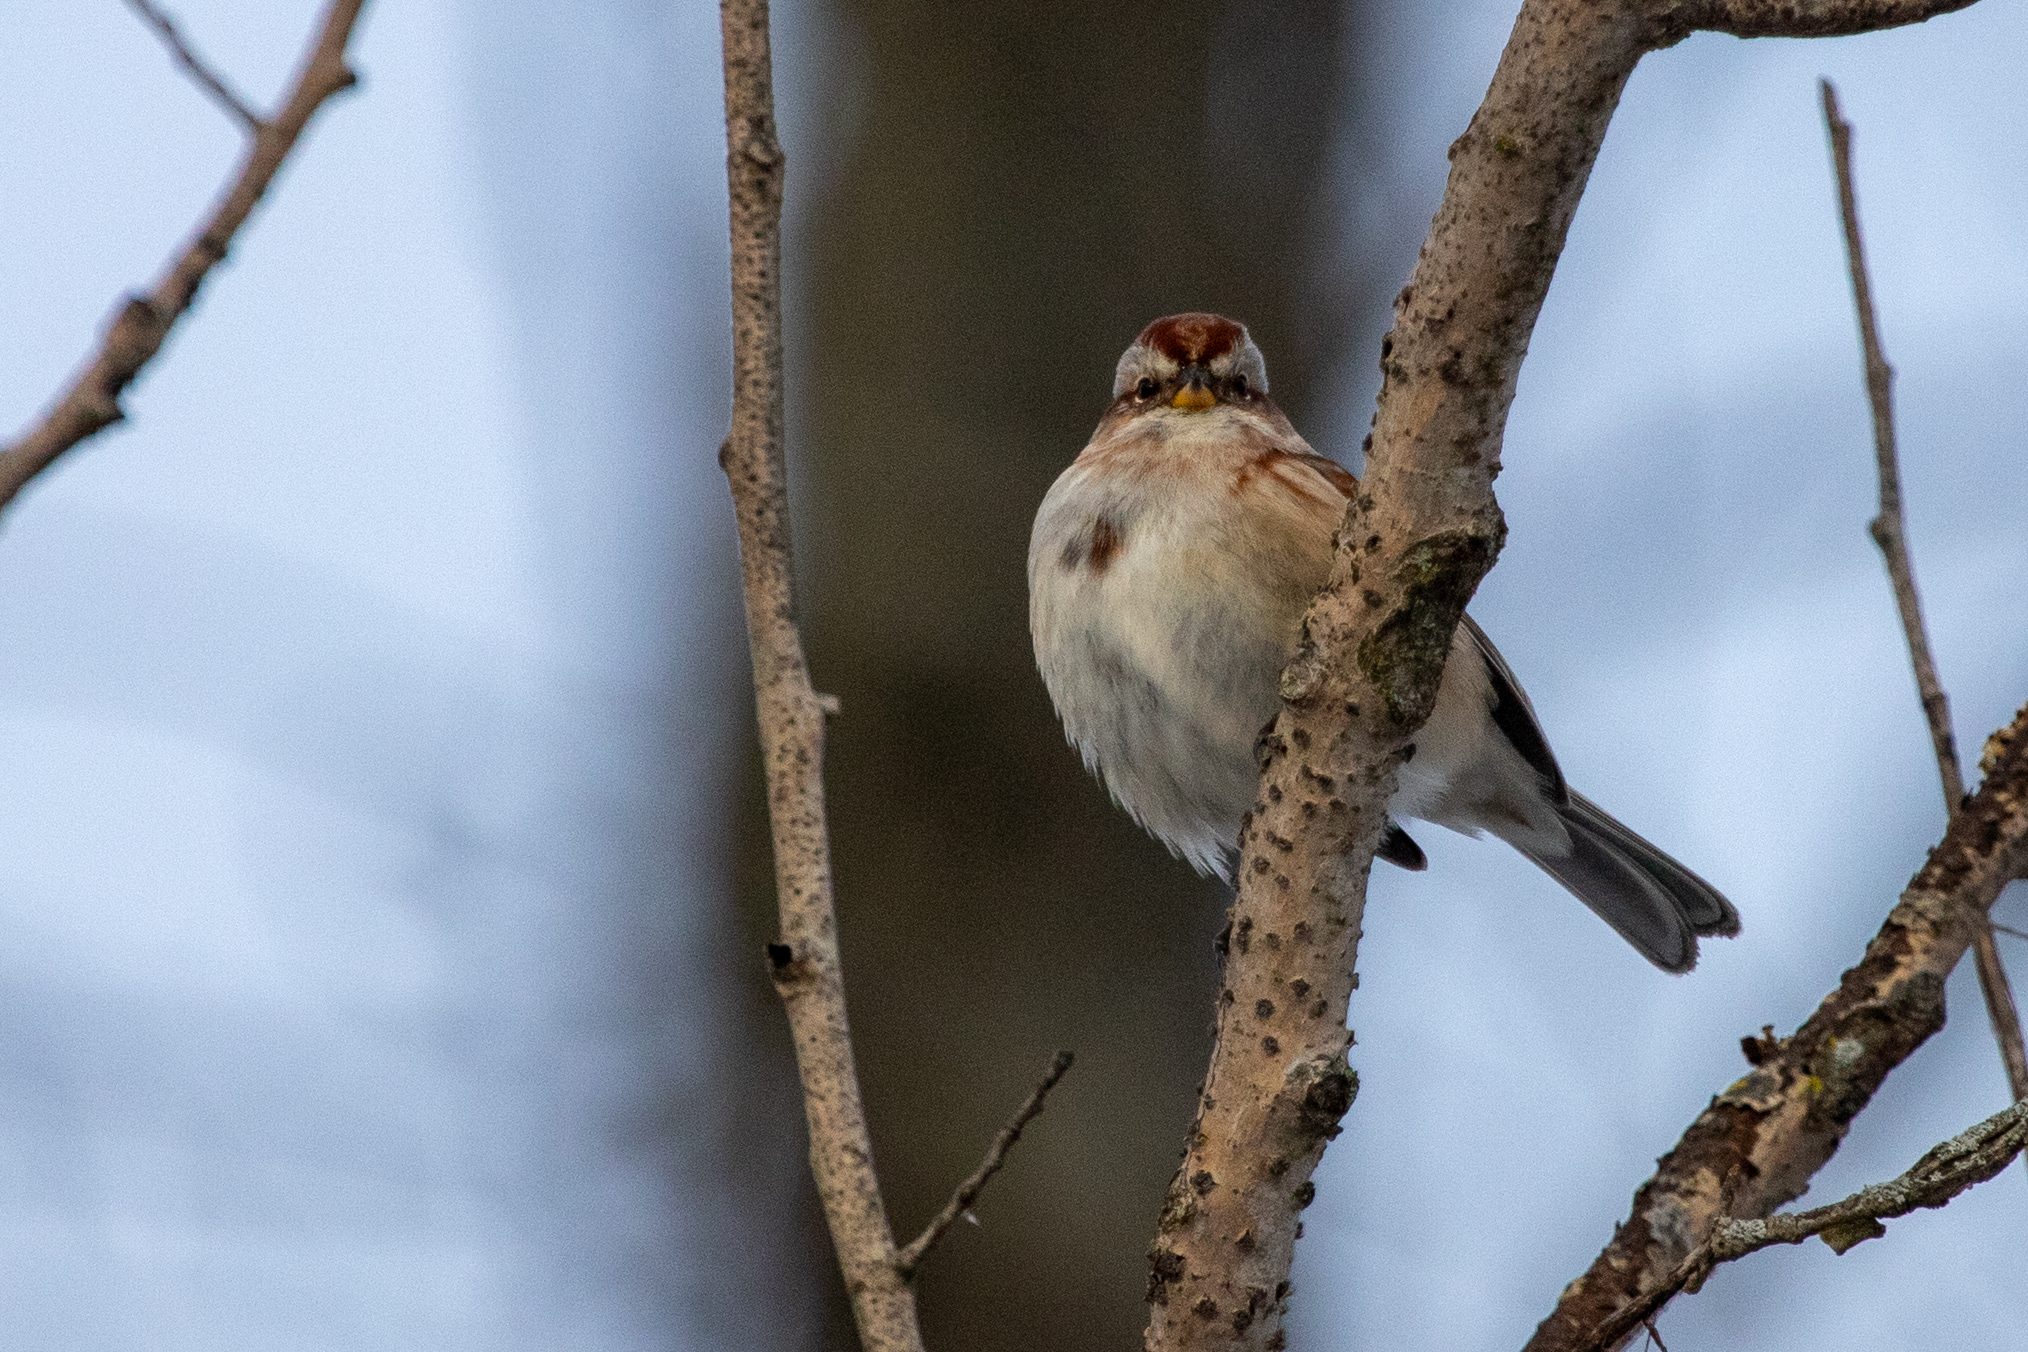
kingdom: Animalia
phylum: Chordata
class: Aves
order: Passeriformes
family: Passerellidae
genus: Spizelloides
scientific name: Spizelloides arborea
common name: American tree sparrow
